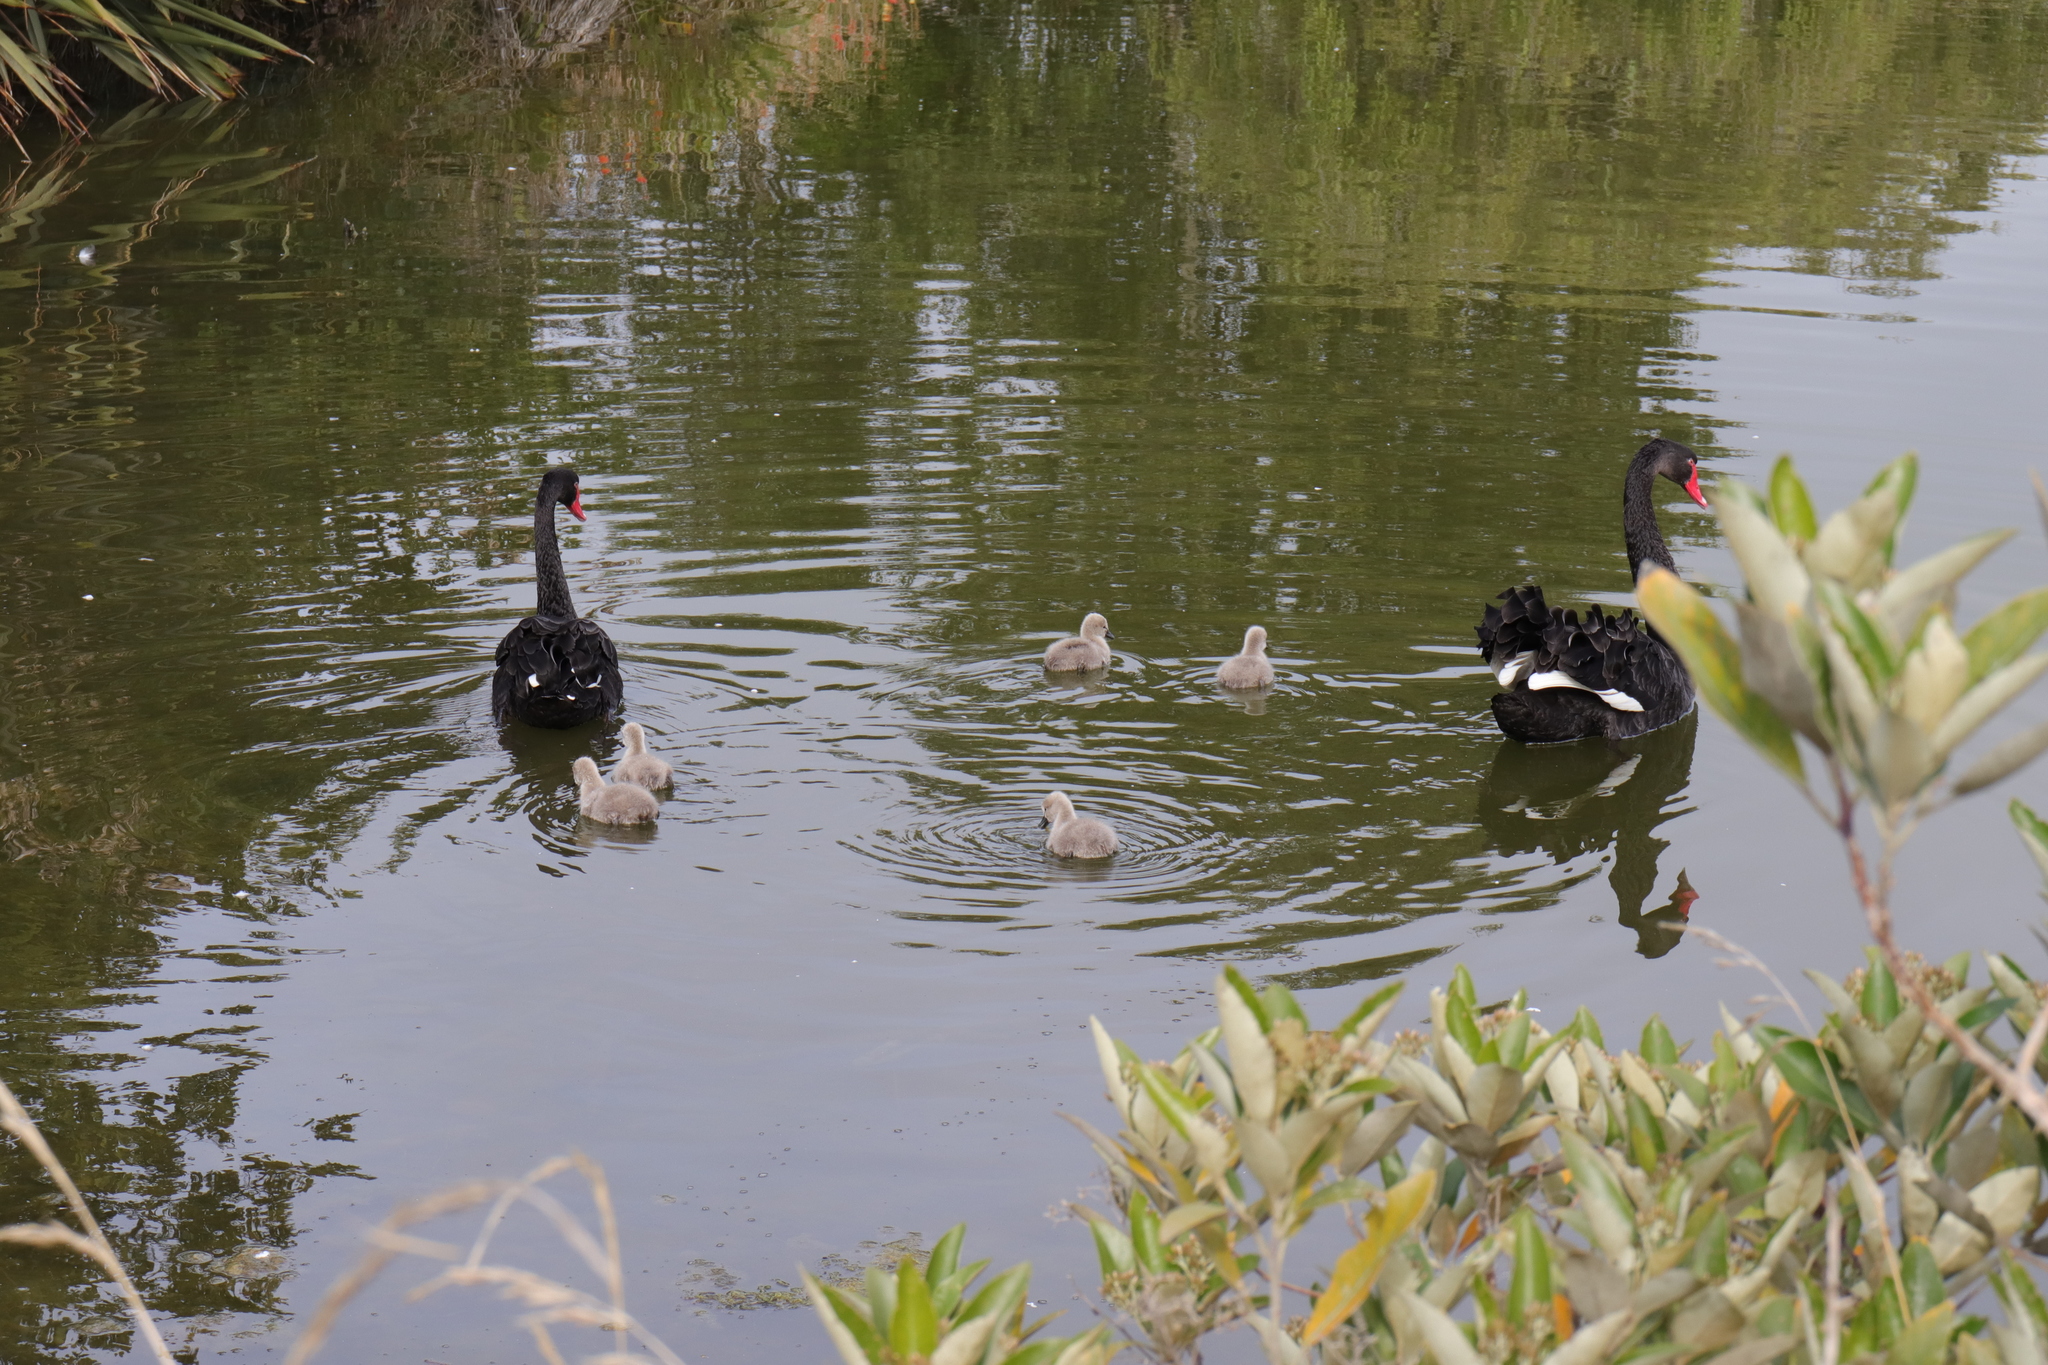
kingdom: Animalia
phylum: Chordata
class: Aves
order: Anseriformes
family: Anatidae
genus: Cygnus
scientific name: Cygnus atratus
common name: Black swan
